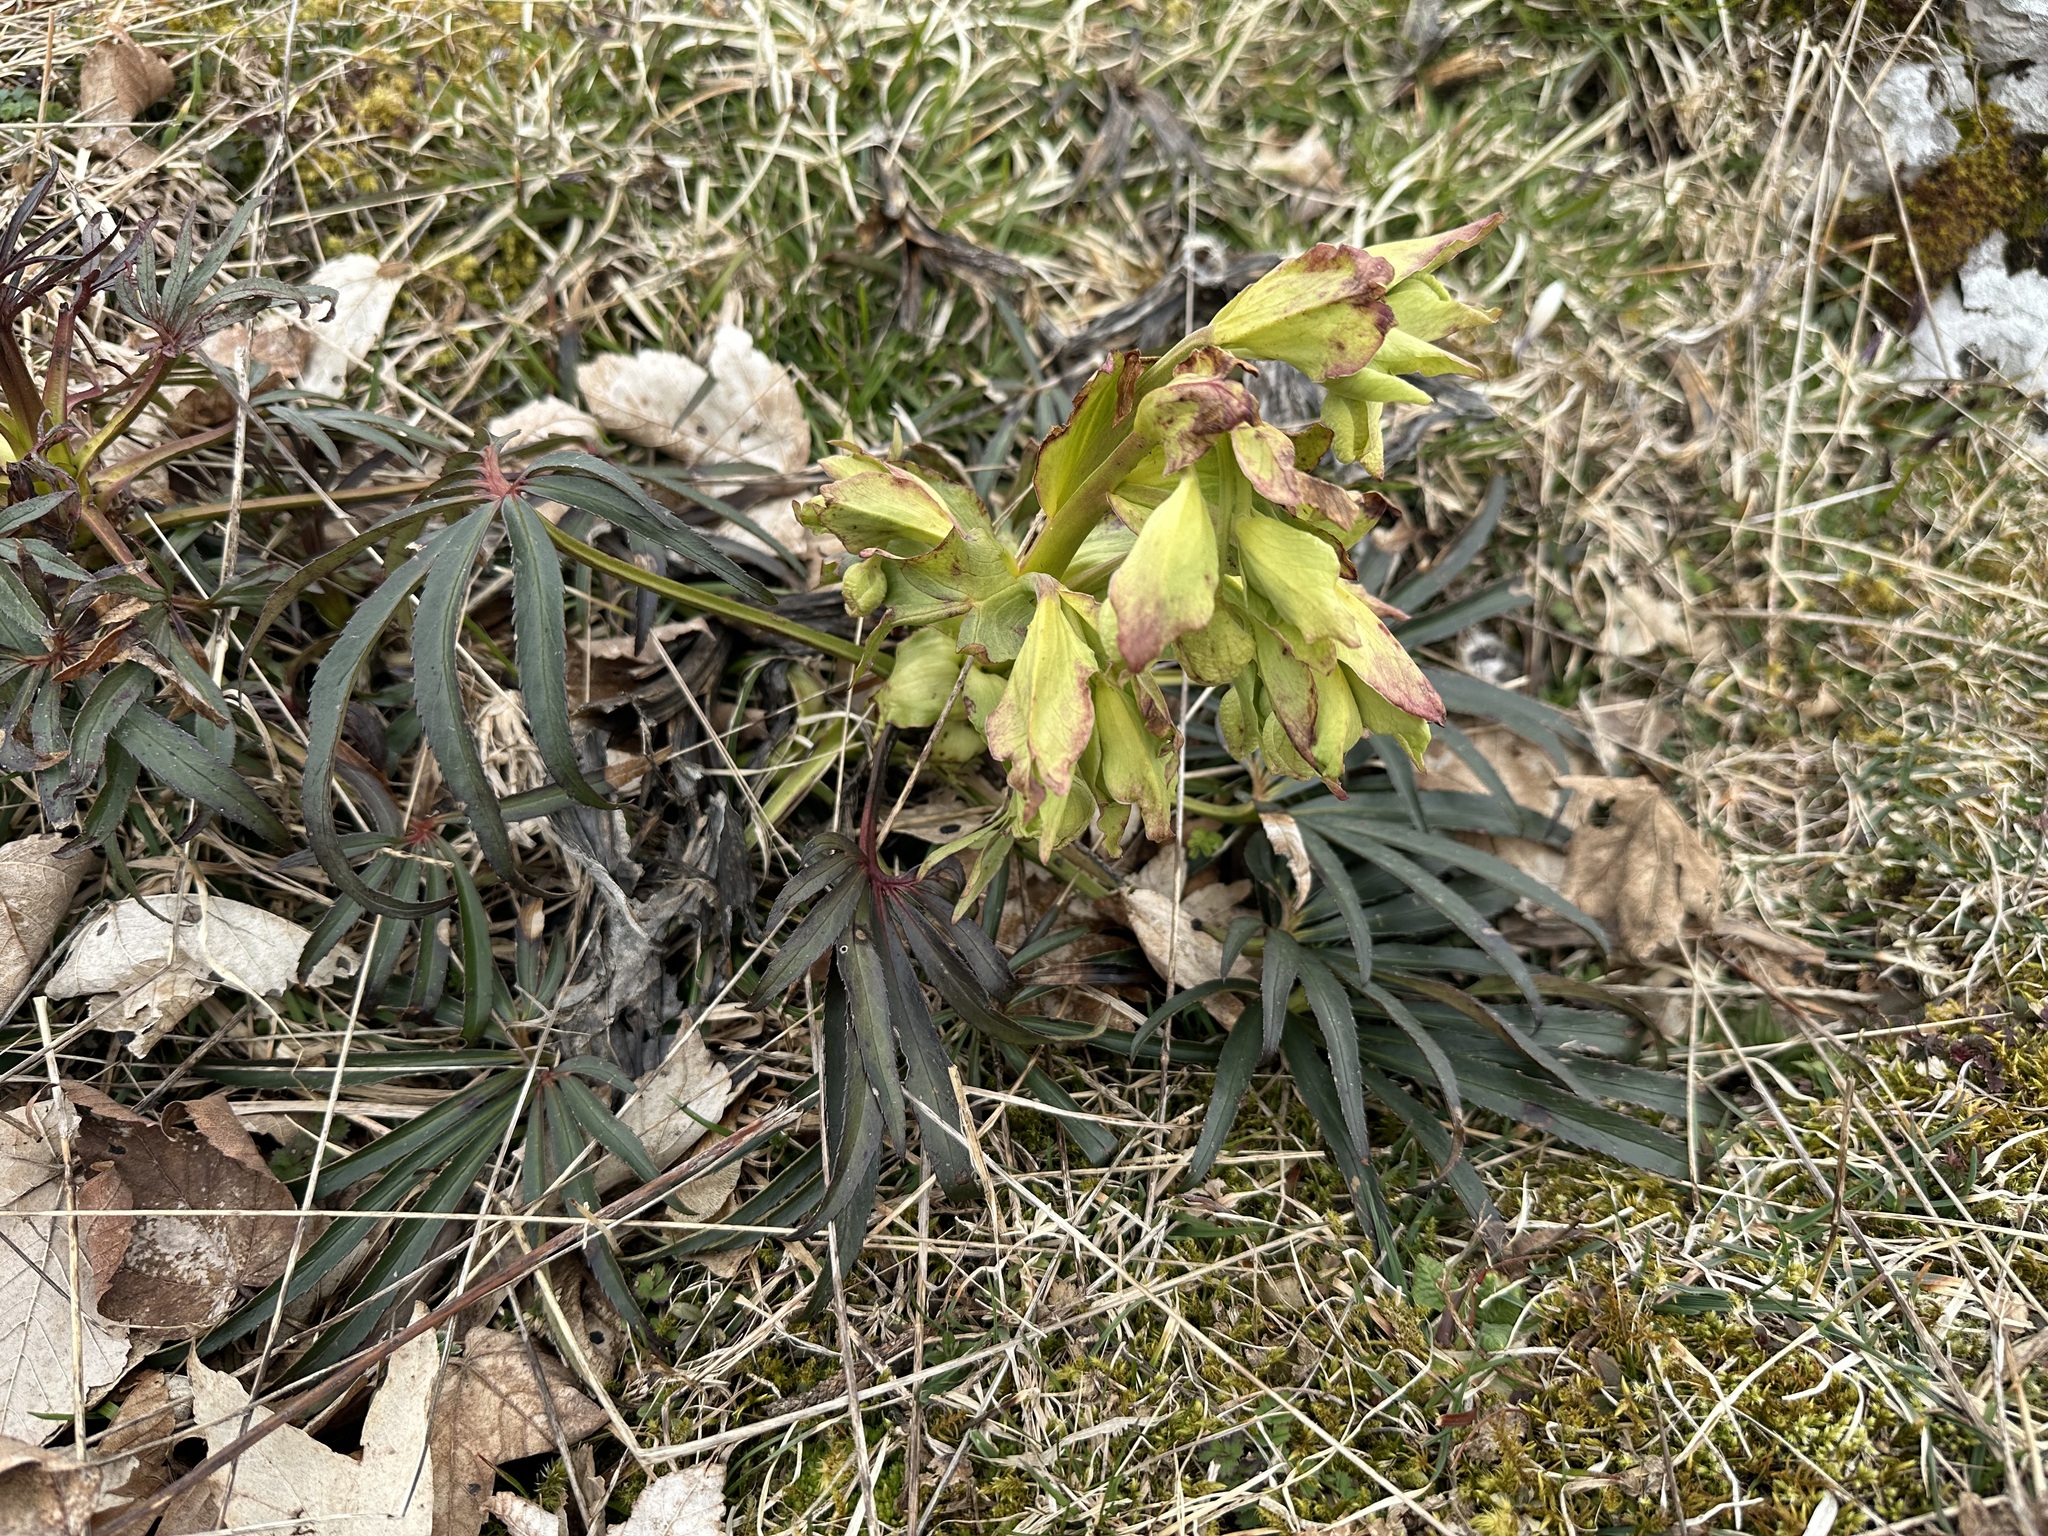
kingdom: Plantae
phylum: Tracheophyta
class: Magnoliopsida
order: Ranunculales
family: Ranunculaceae
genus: Helleborus
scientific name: Helleborus foetidus
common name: Stinking hellebore
